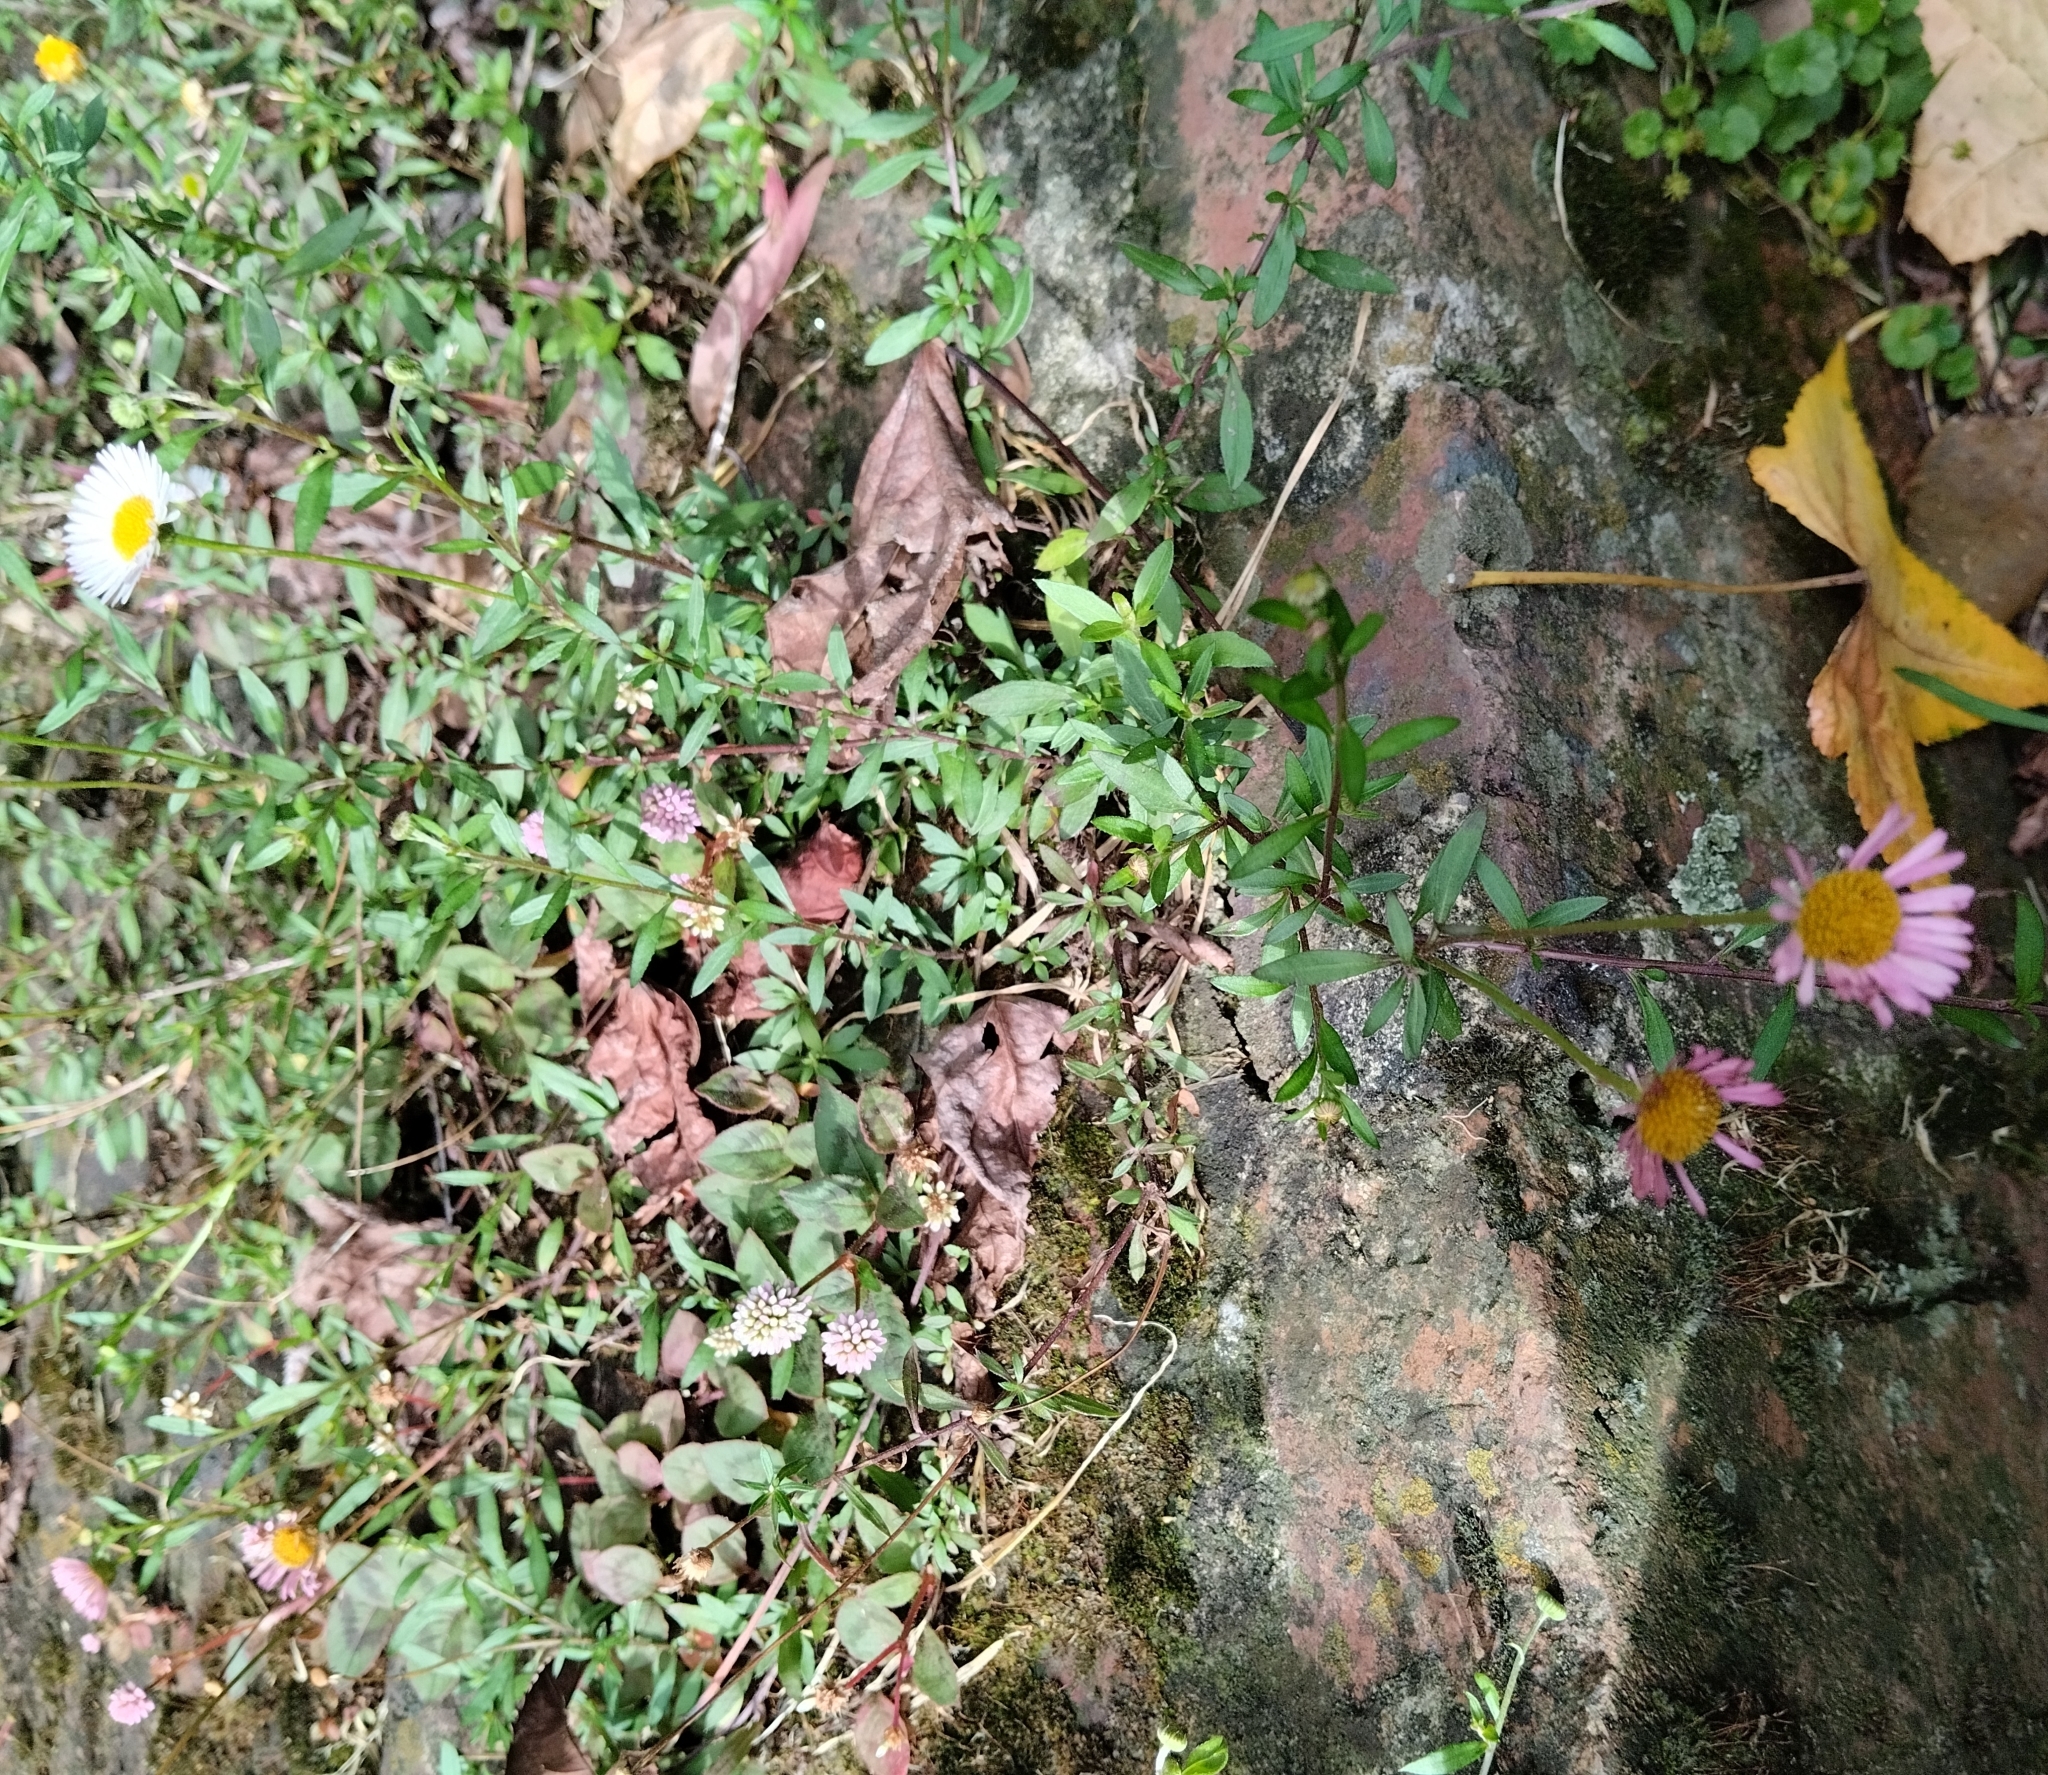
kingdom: Plantae
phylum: Tracheophyta
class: Magnoliopsida
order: Asterales
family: Asteraceae
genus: Erigeron
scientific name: Erigeron karvinskianus
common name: Mexican fleabane
